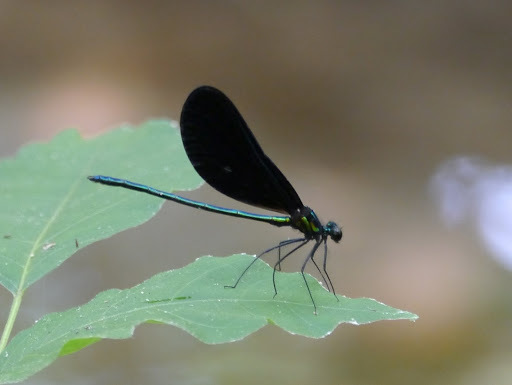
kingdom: Animalia
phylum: Arthropoda
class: Insecta
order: Odonata
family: Calopterygidae
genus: Calopteryx
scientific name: Calopteryx maculata
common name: Ebony jewelwing
